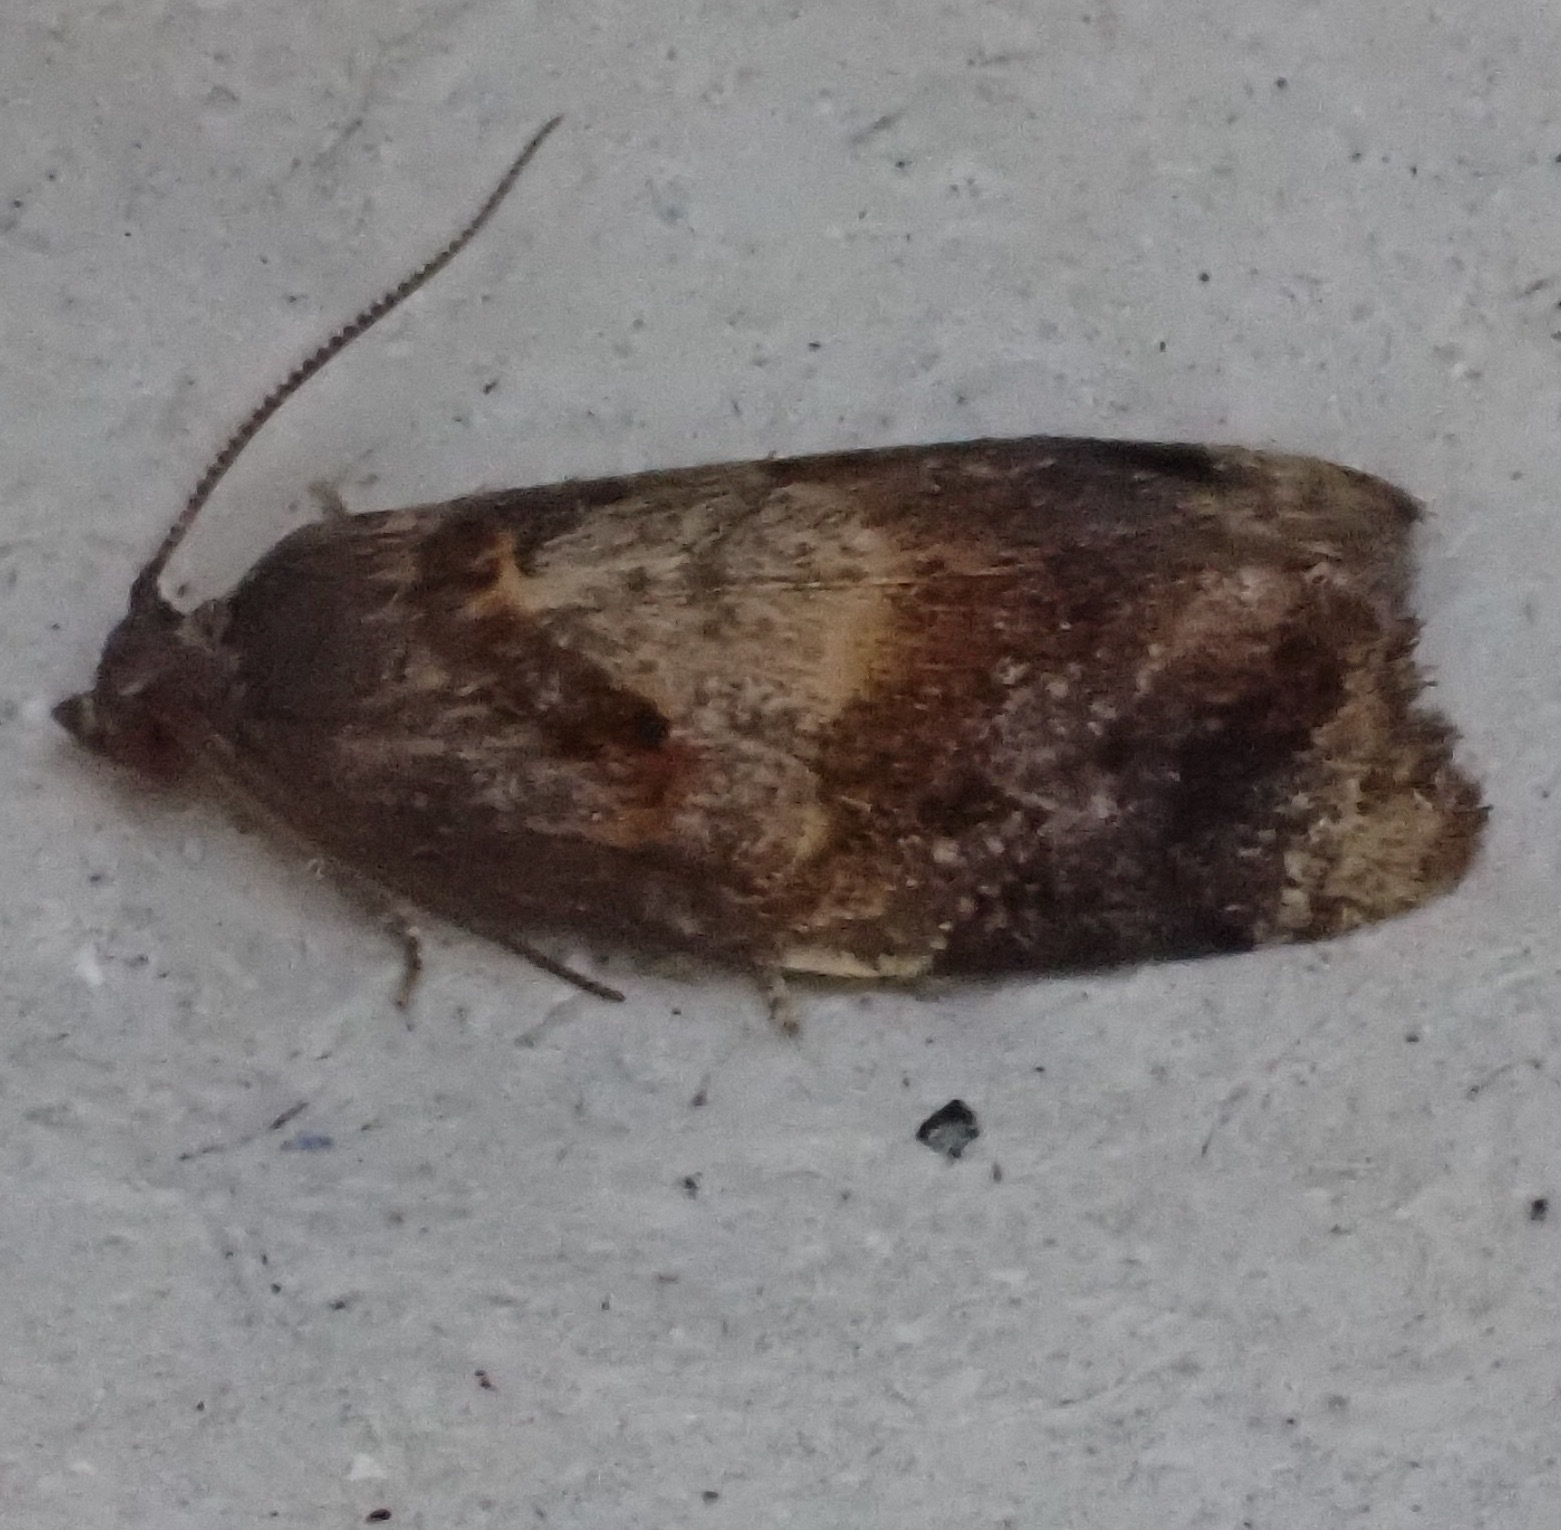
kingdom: Animalia
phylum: Arthropoda
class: Insecta
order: Lepidoptera
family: Tortricidae
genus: Ditula
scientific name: Ditula angustiorana
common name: Red-barred tortrix
